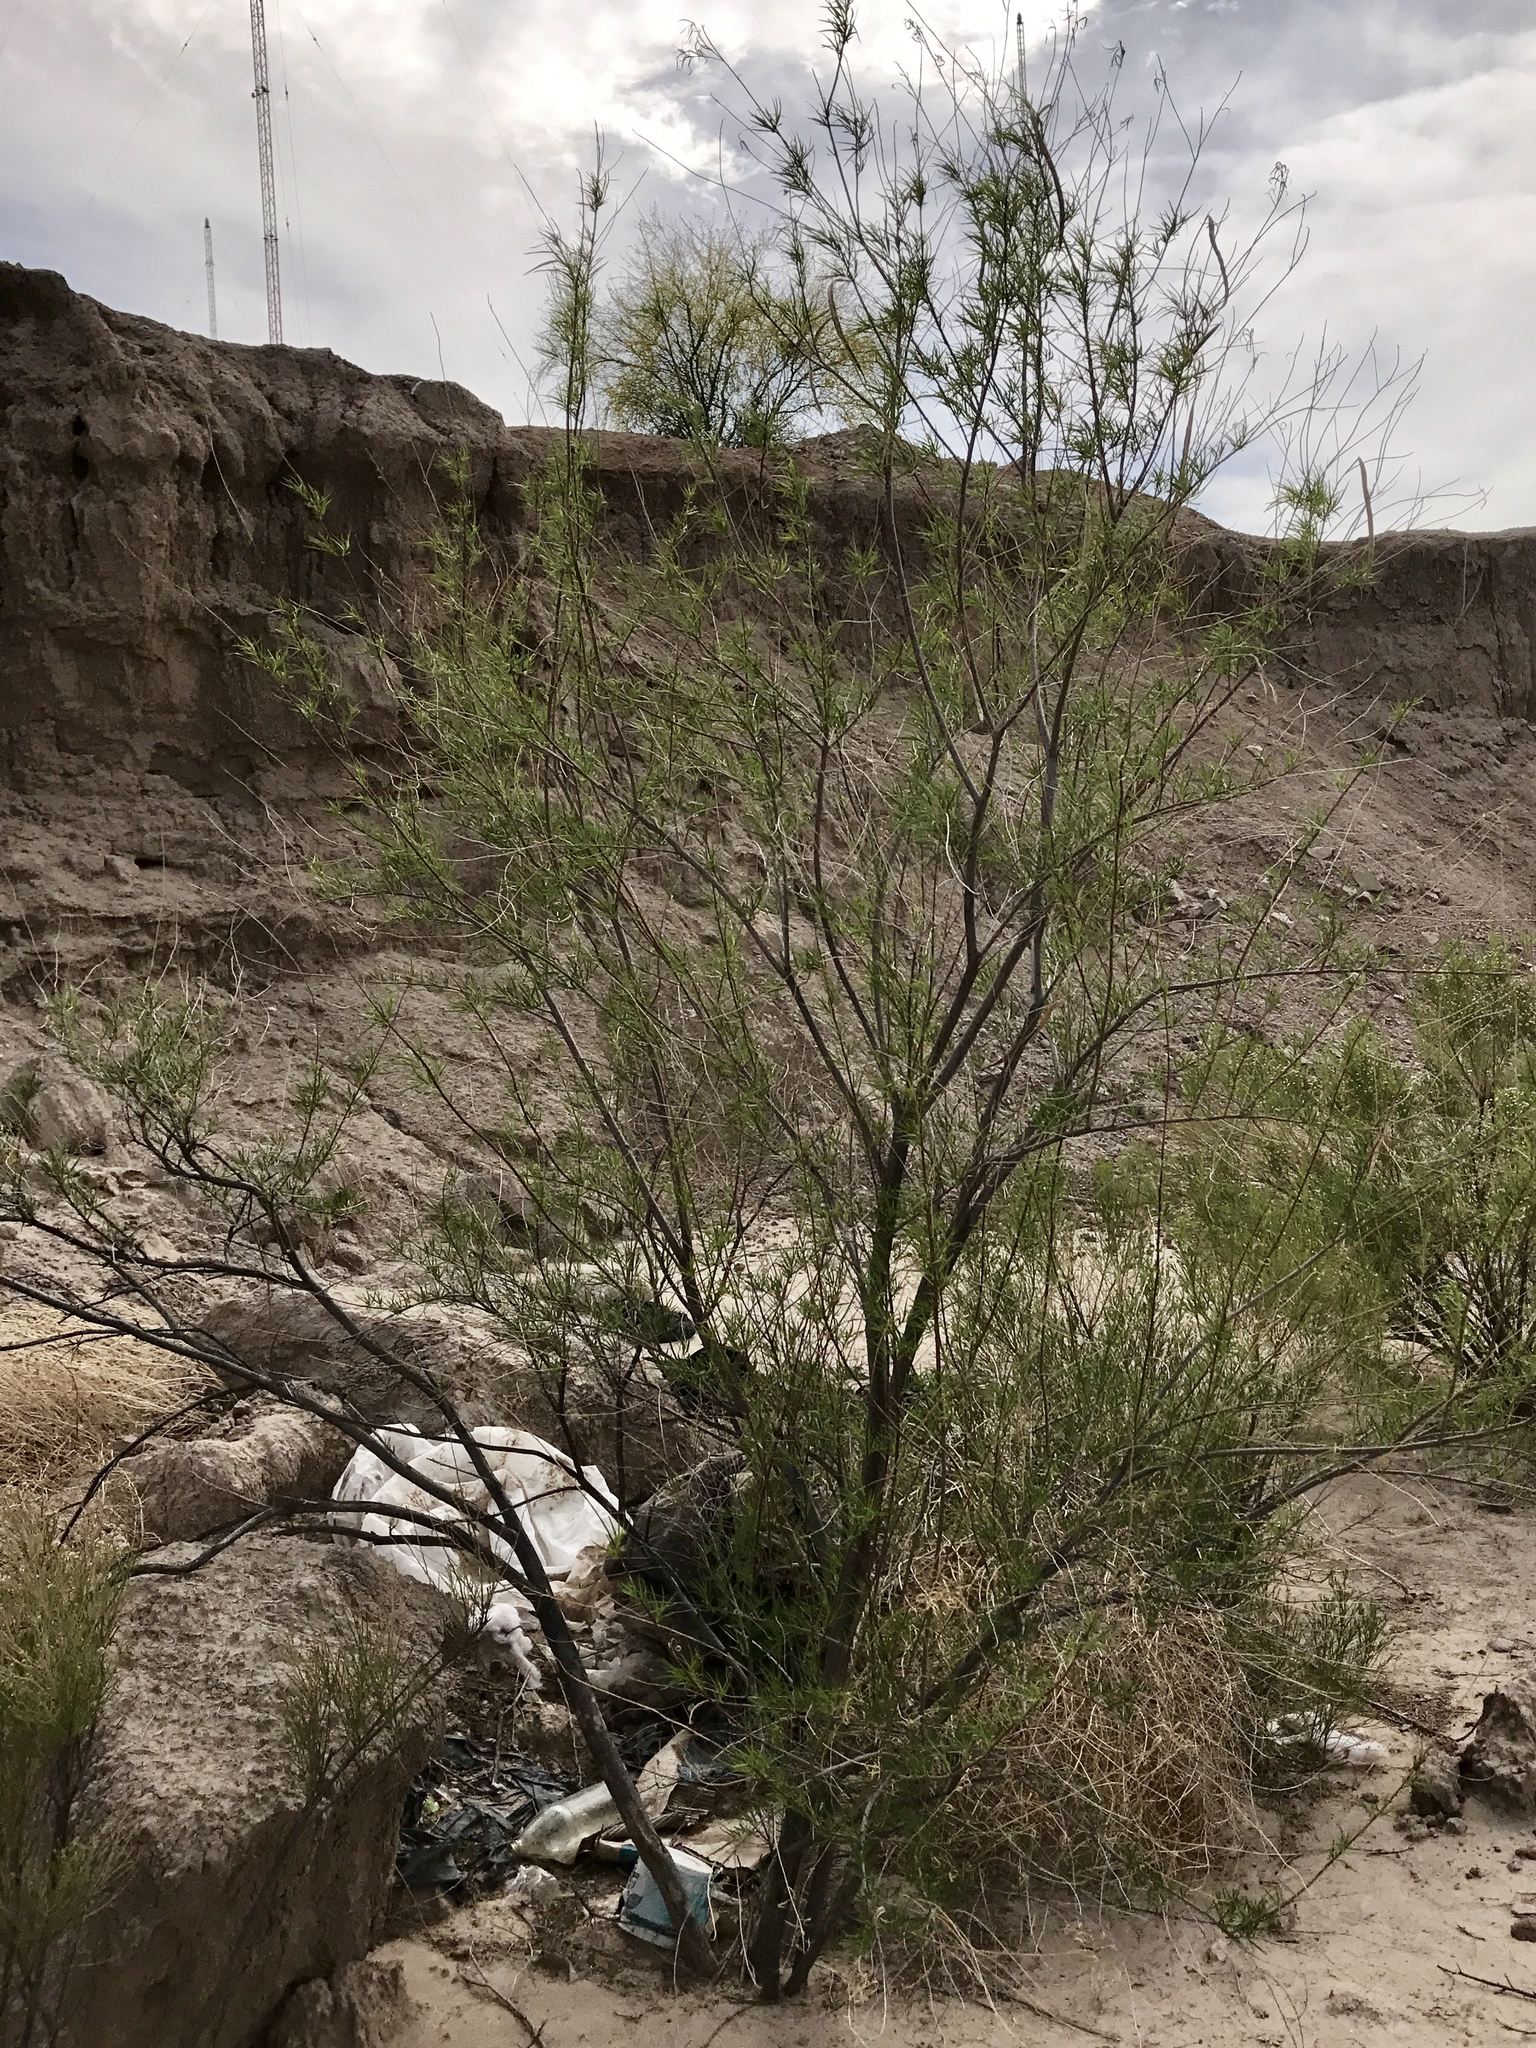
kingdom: Plantae
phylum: Tracheophyta
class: Magnoliopsida
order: Lamiales
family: Bignoniaceae
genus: Chilopsis
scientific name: Chilopsis linearis
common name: Desert-willow
